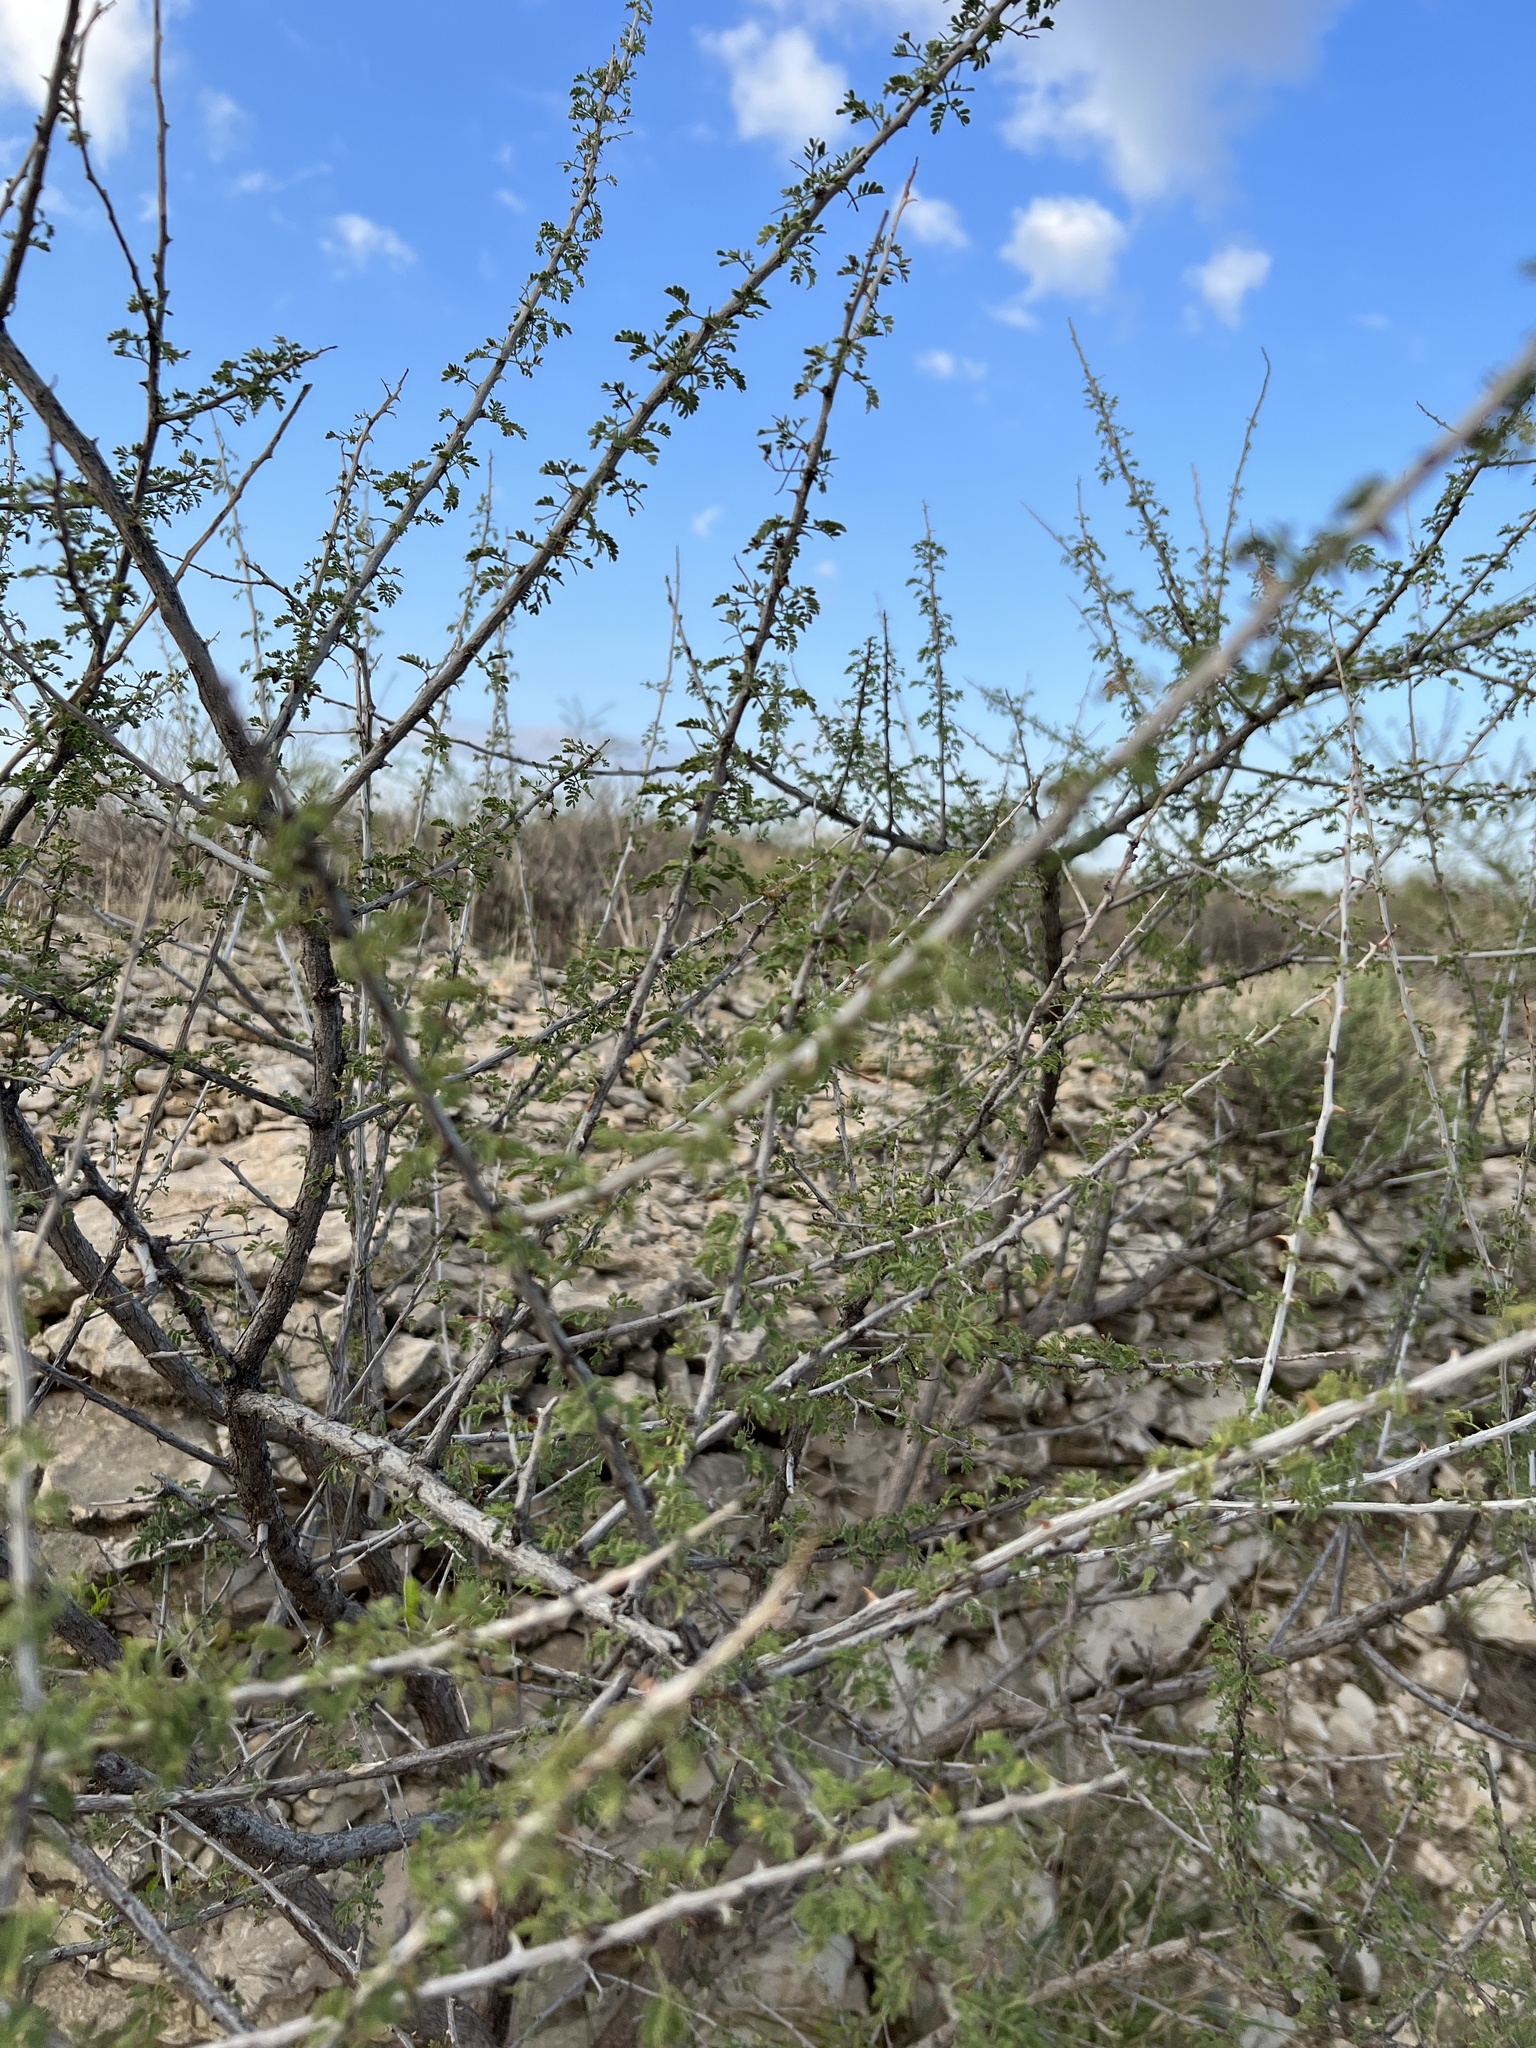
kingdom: Plantae
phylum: Tracheophyta
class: Magnoliopsida
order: Fabales
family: Fabaceae
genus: Senegalia
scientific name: Senegalia greggii
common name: Texas-mimosa
